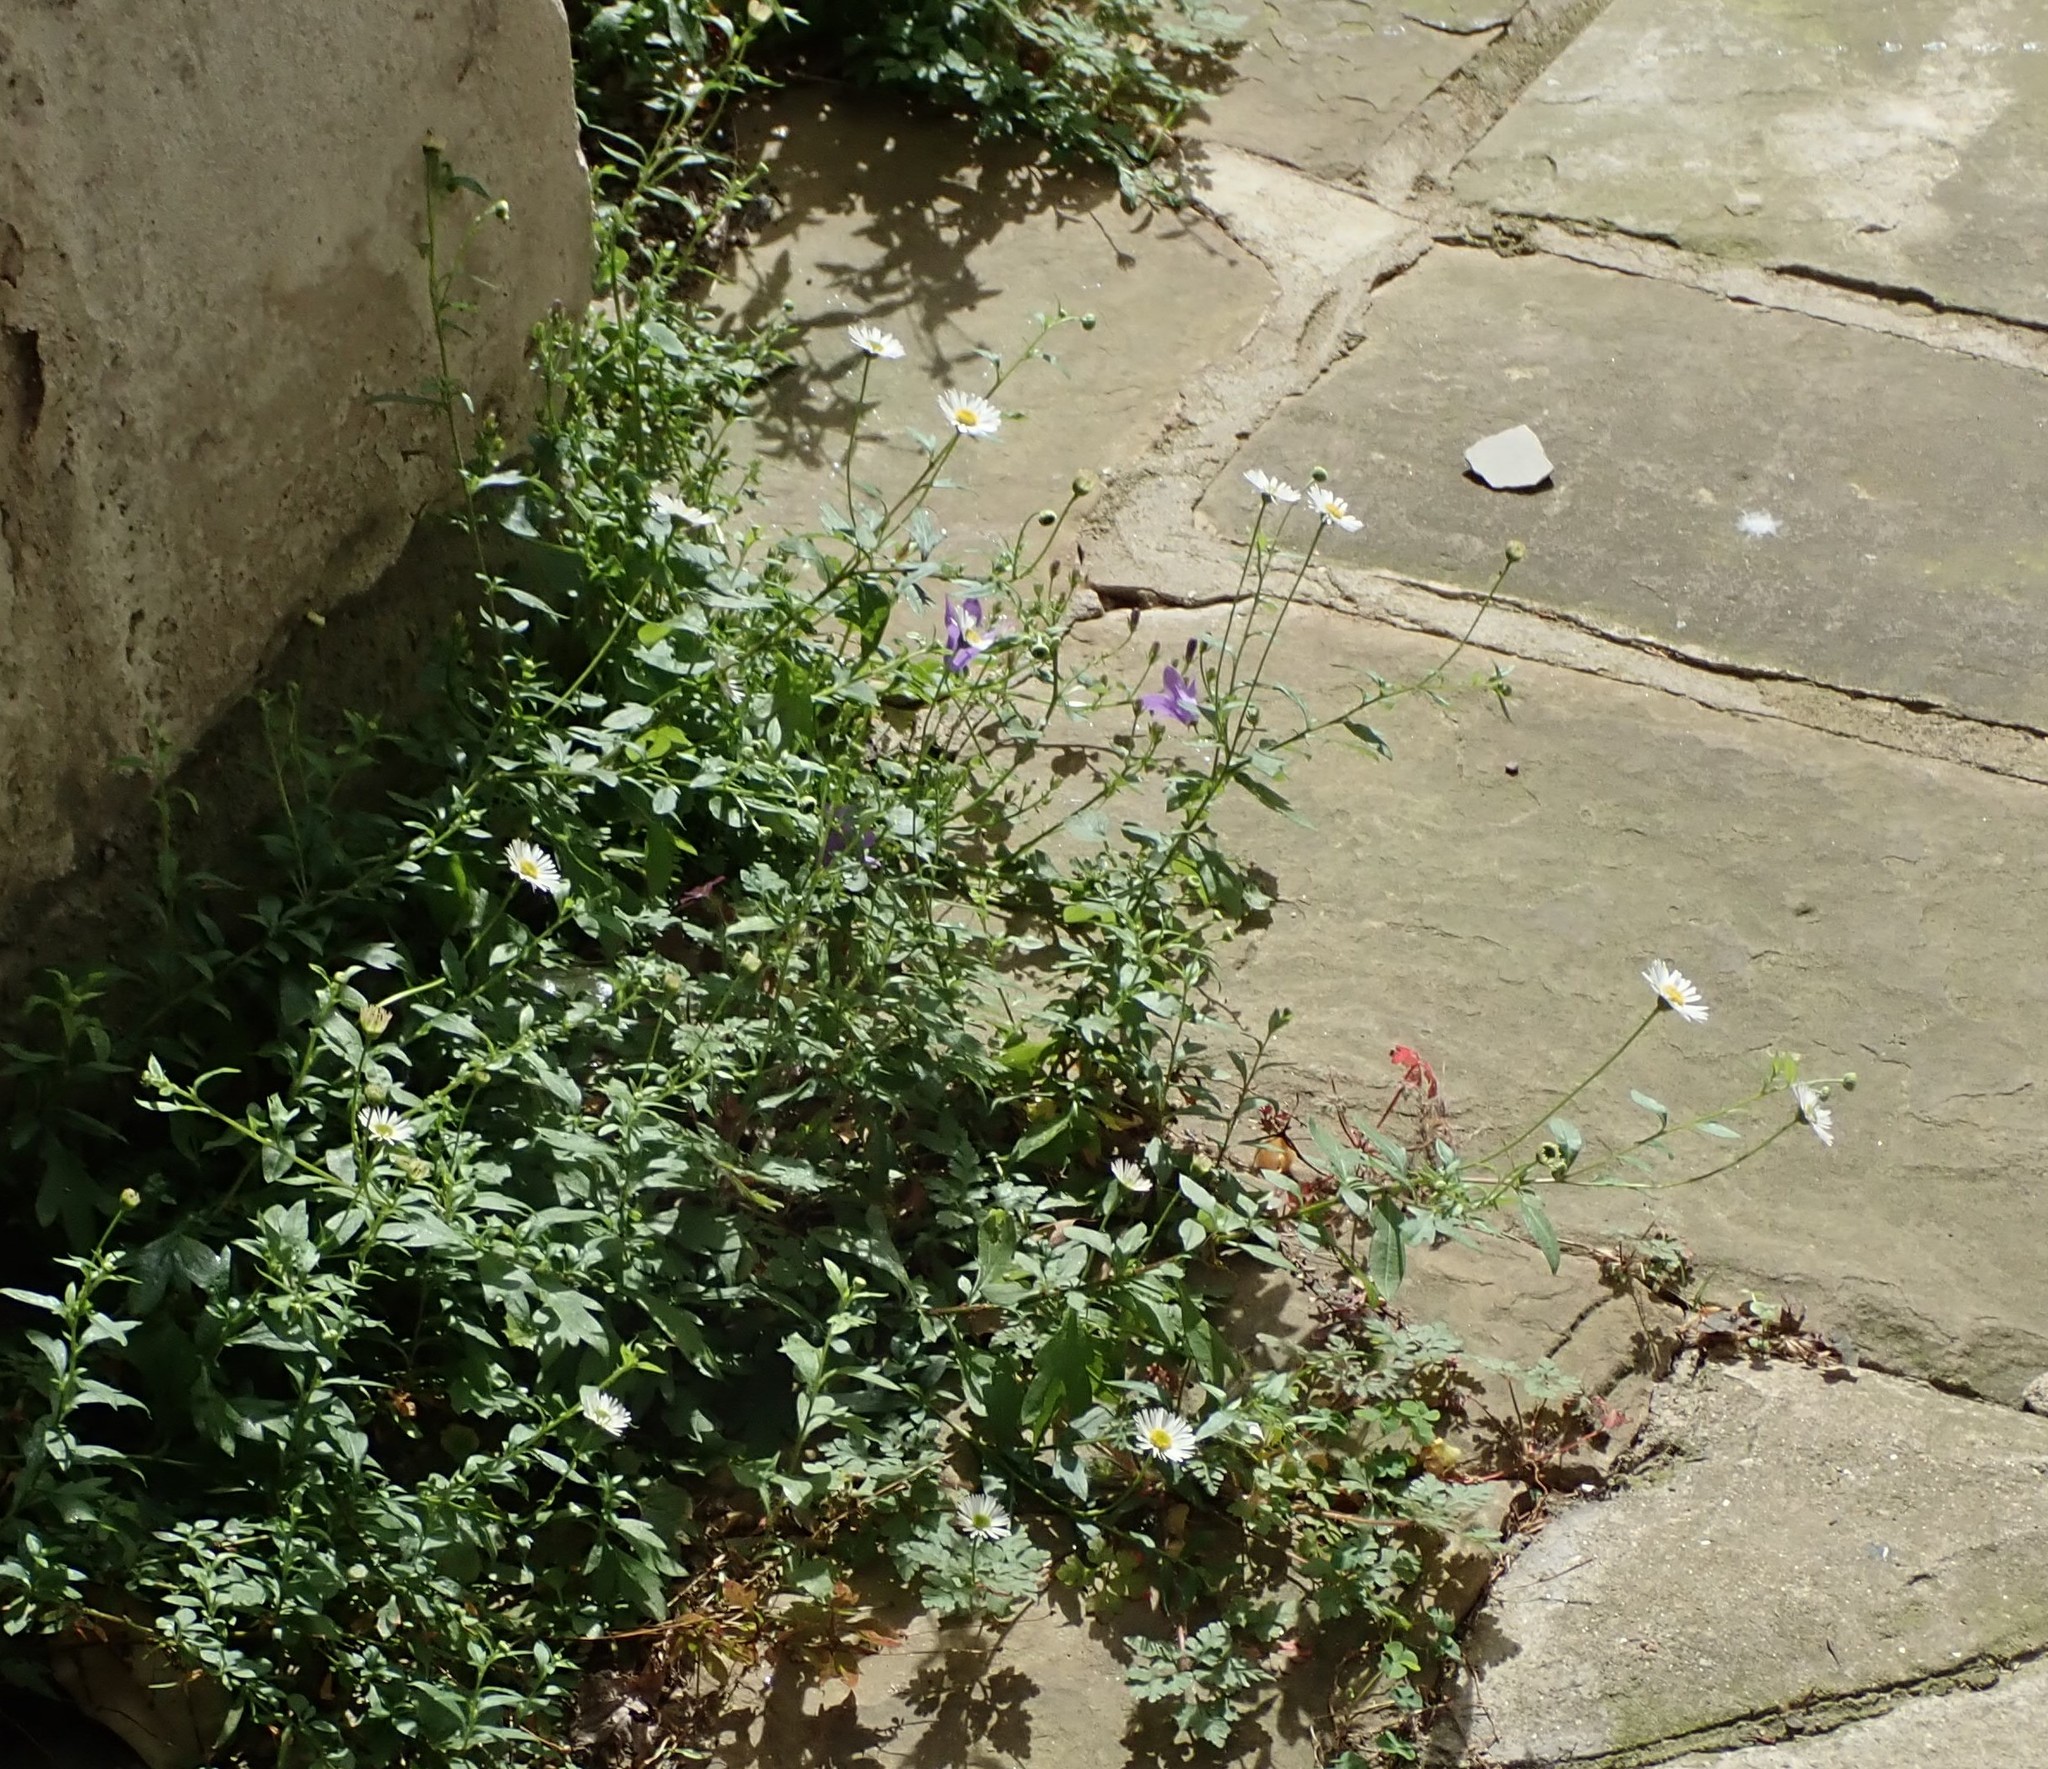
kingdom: Plantae
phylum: Tracheophyta
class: Magnoliopsida
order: Asterales
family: Asteraceae
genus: Erigeron
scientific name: Erigeron karvinskianus
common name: Mexican fleabane
